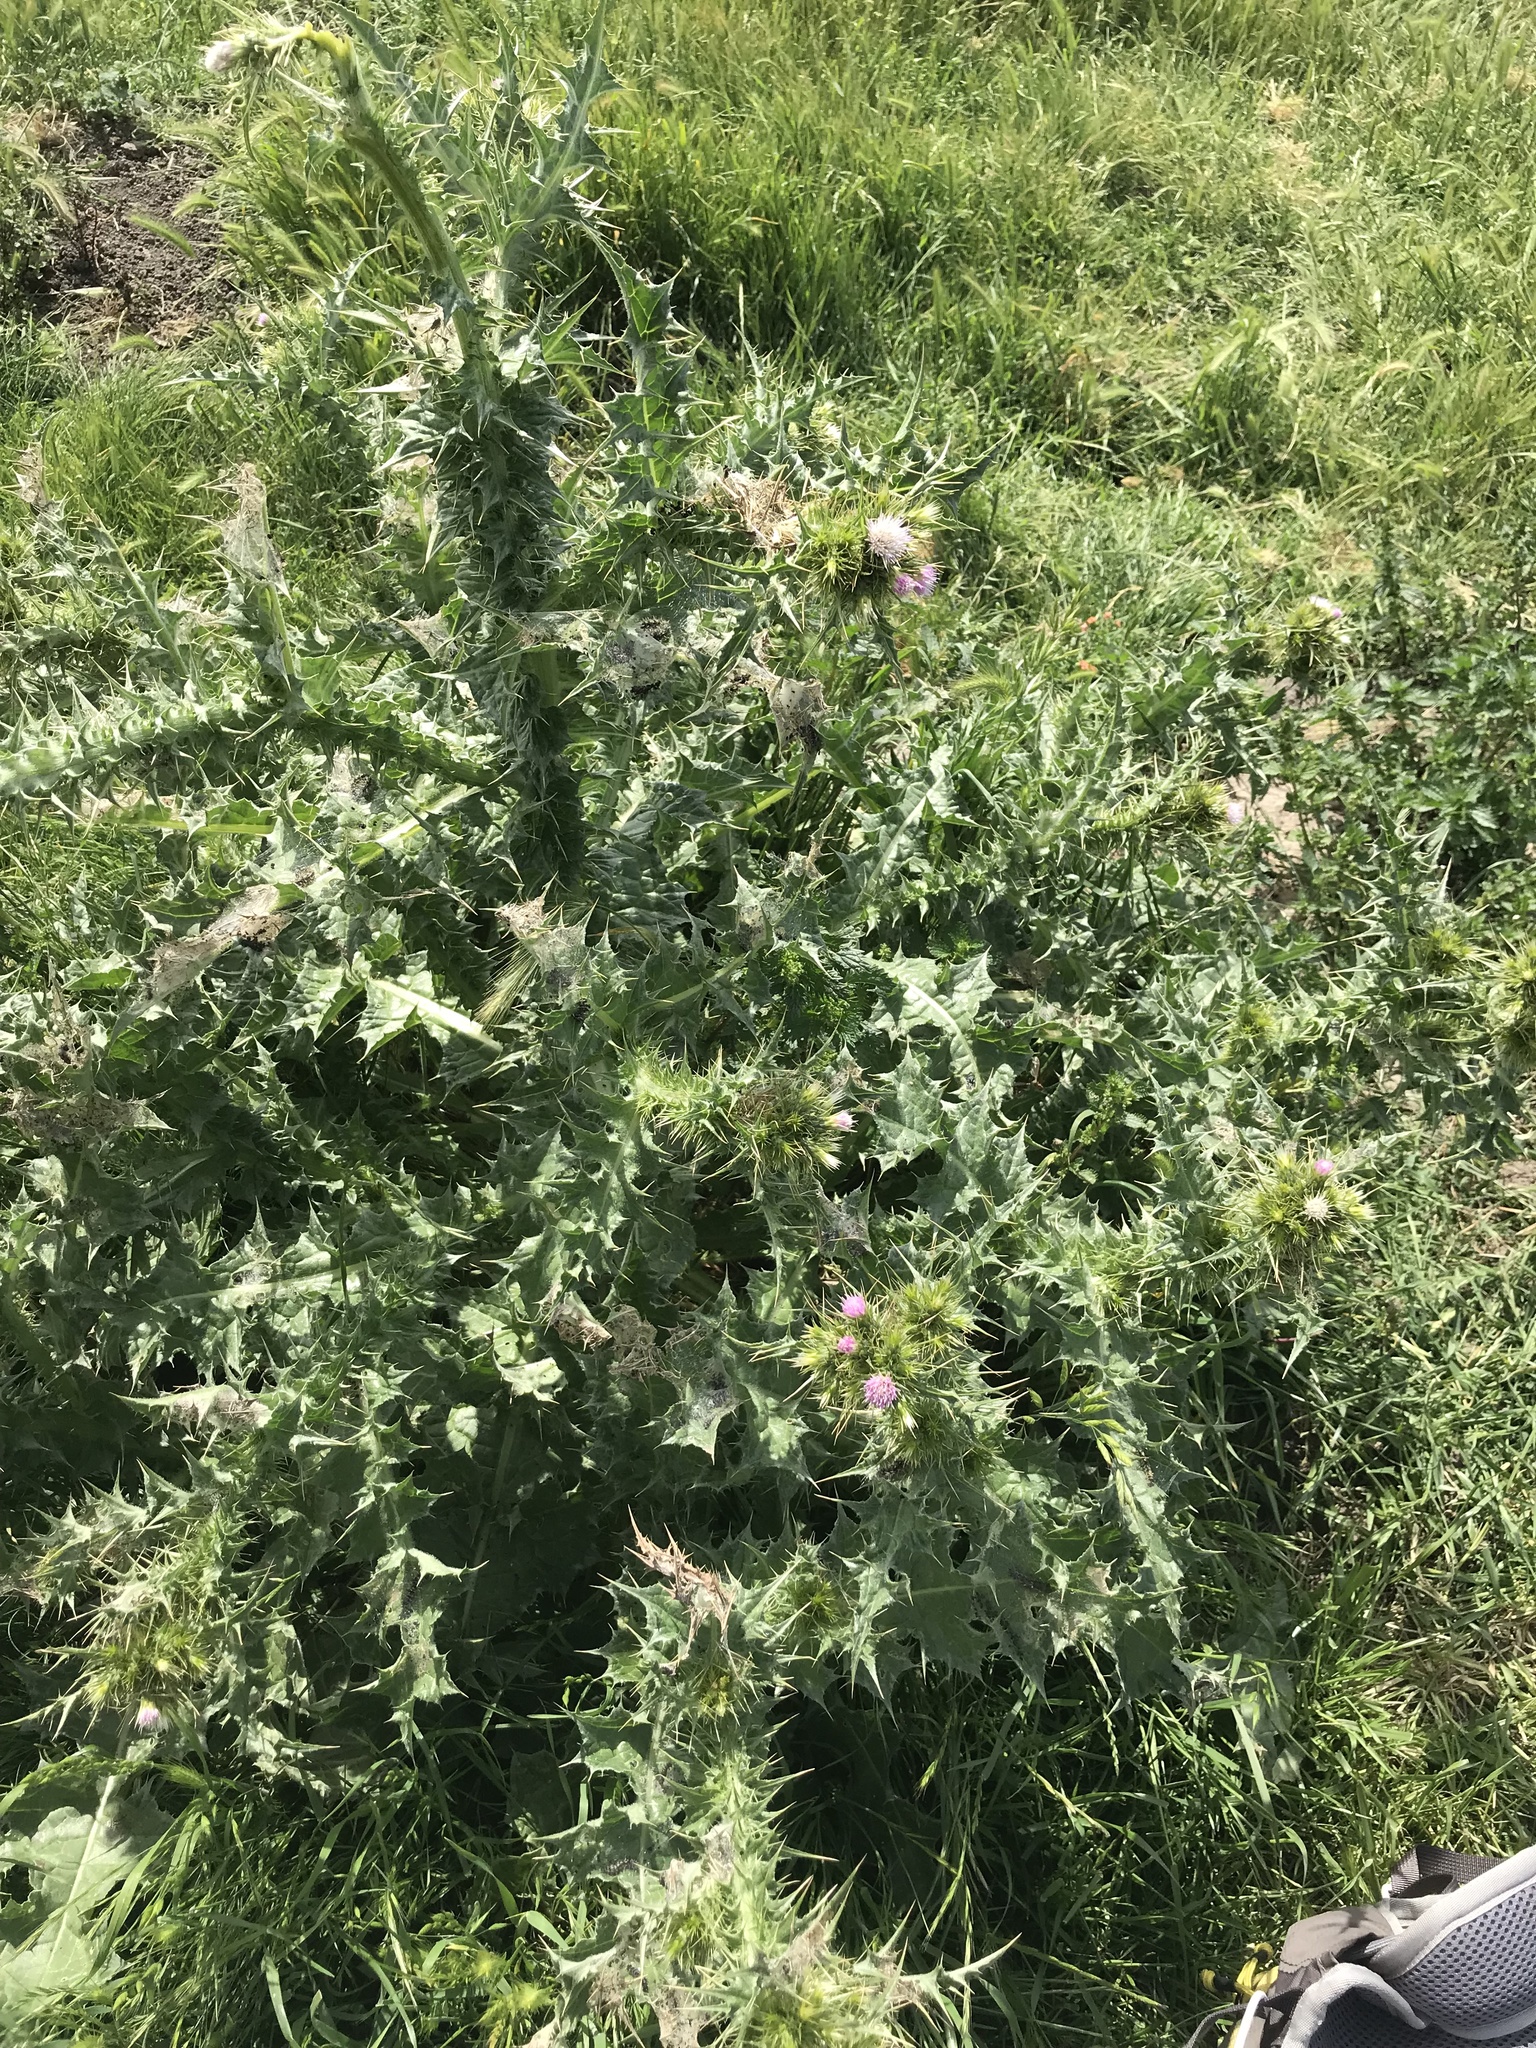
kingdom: Plantae
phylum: Tracheophyta
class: Magnoliopsida
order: Asterales
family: Asteraceae
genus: Carduus
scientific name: Carduus tenuiflorus
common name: Slender thistle
